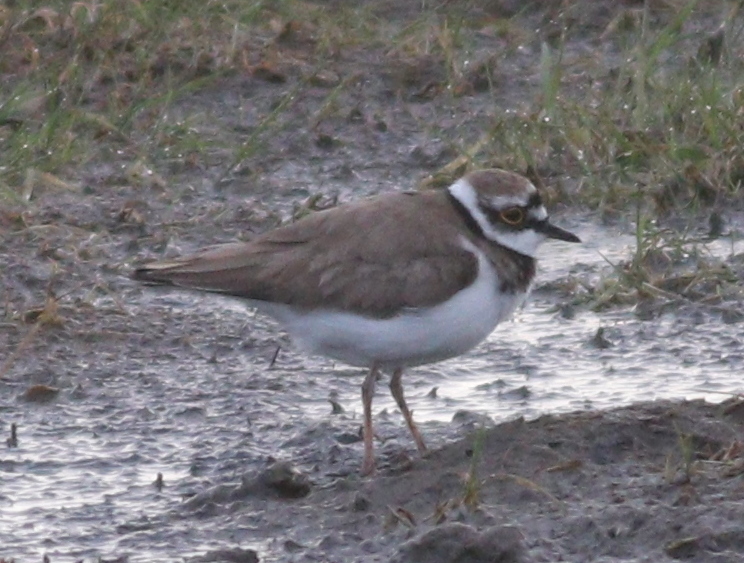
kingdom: Animalia
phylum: Chordata
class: Aves
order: Charadriiformes
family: Charadriidae
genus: Charadrius
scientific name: Charadrius dubius
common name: Little ringed plover
